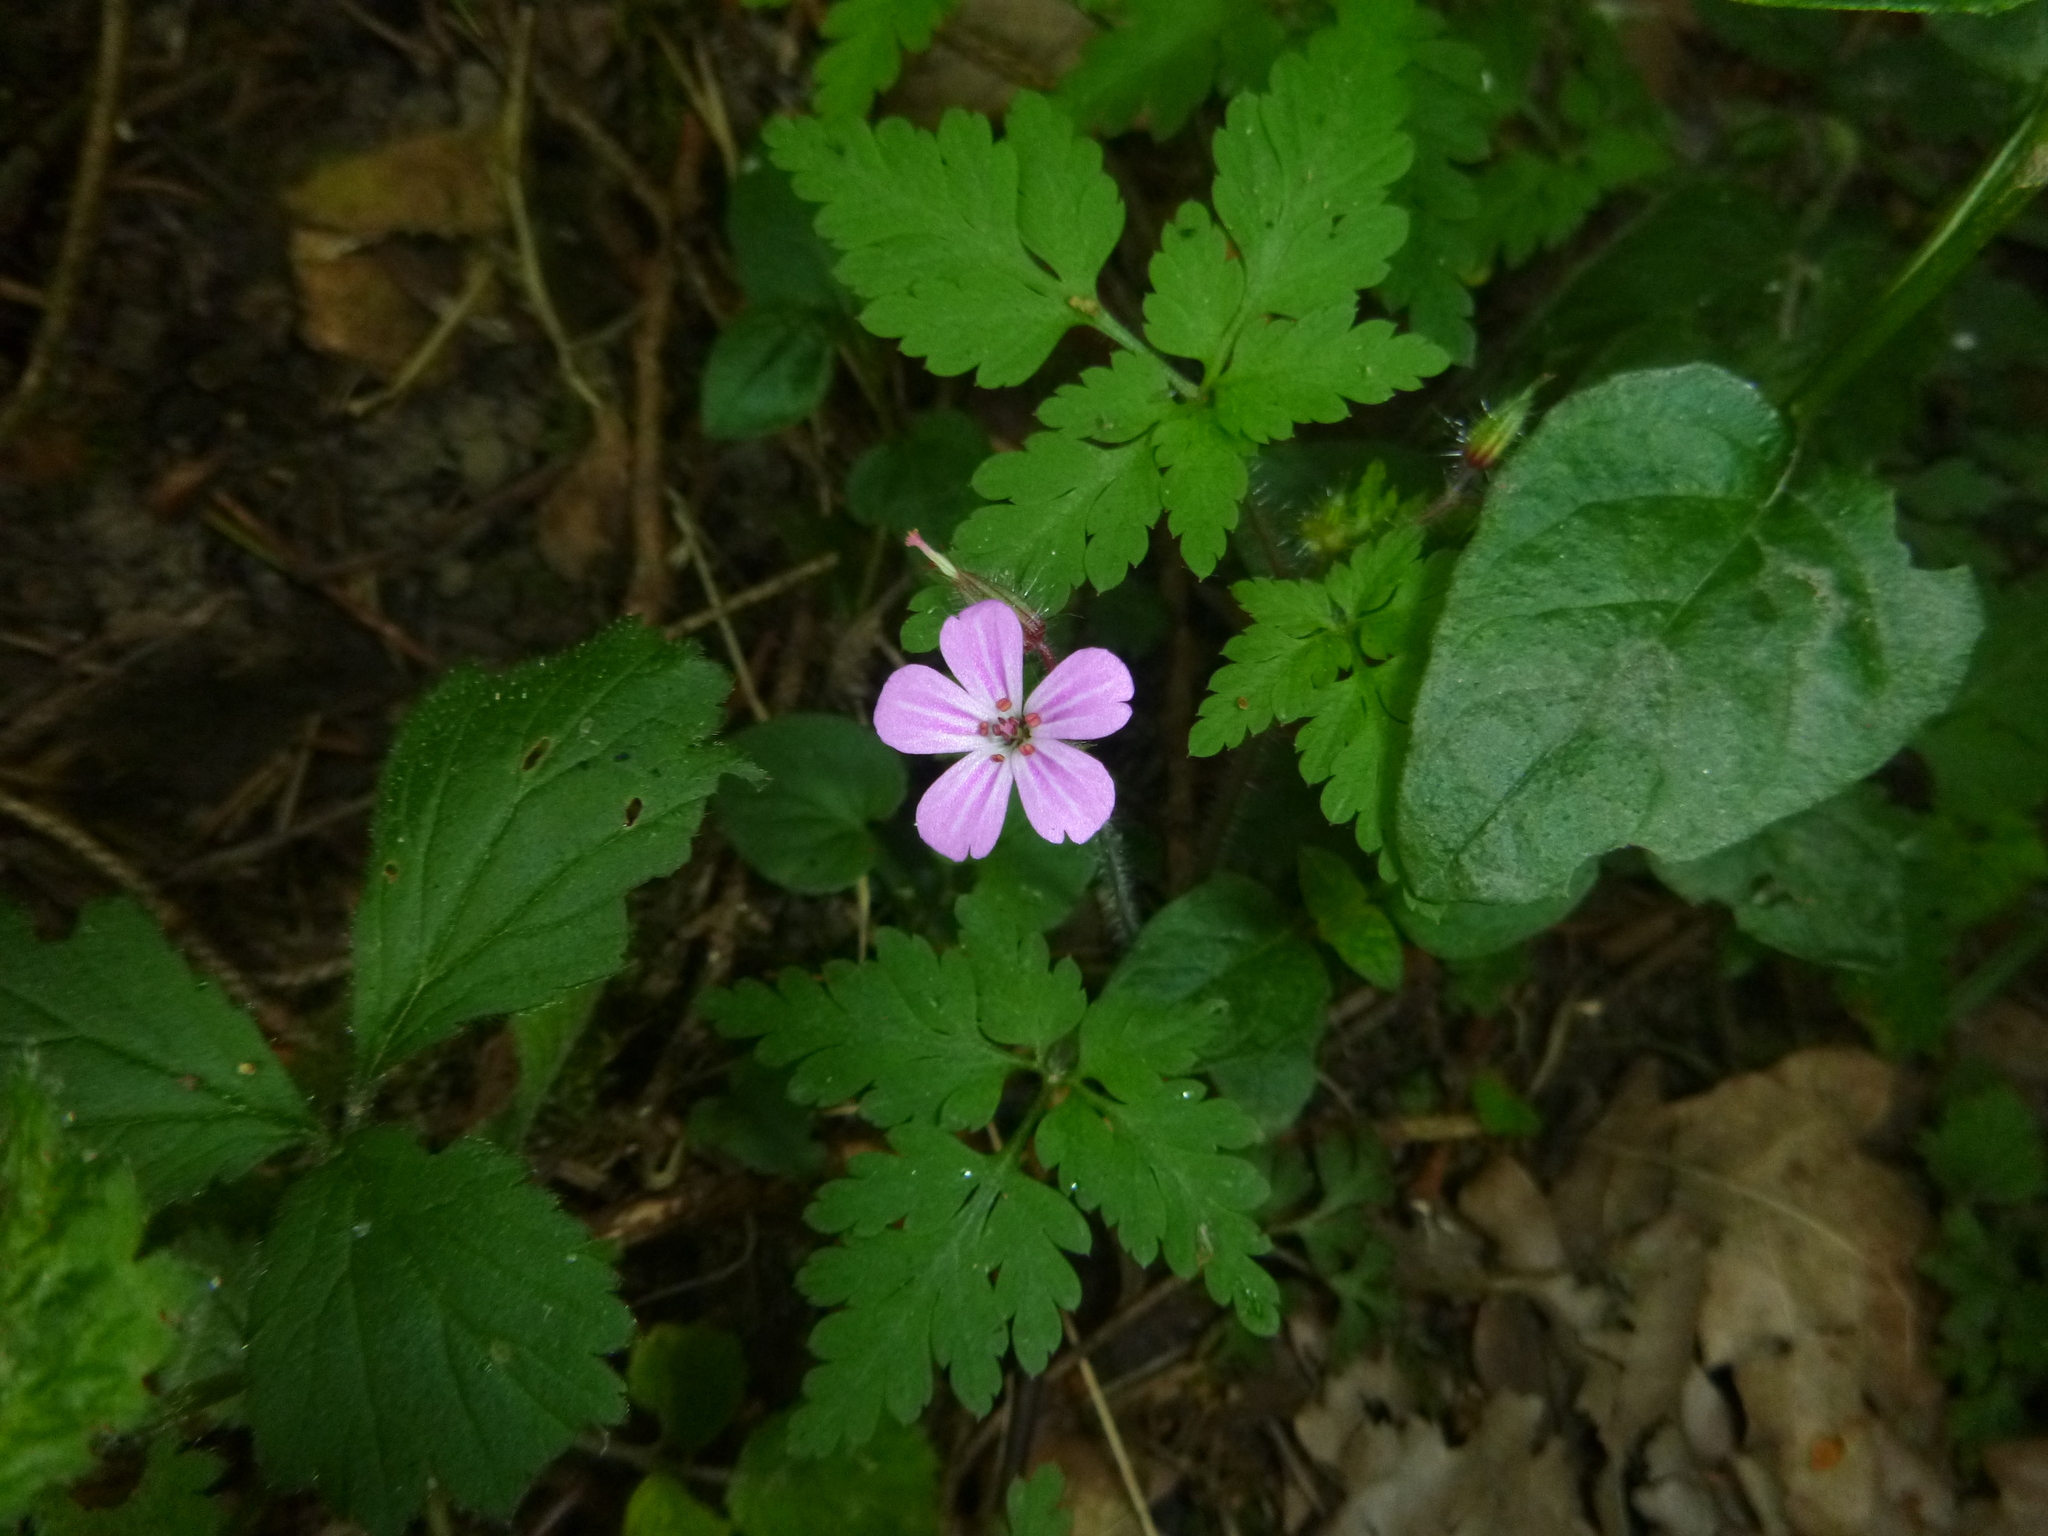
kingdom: Plantae
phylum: Tracheophyta
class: Magnoliopsida
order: Geraniales
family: Geraniaceae
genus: Geranium
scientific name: Geranium robertianum
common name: Herb-robert
